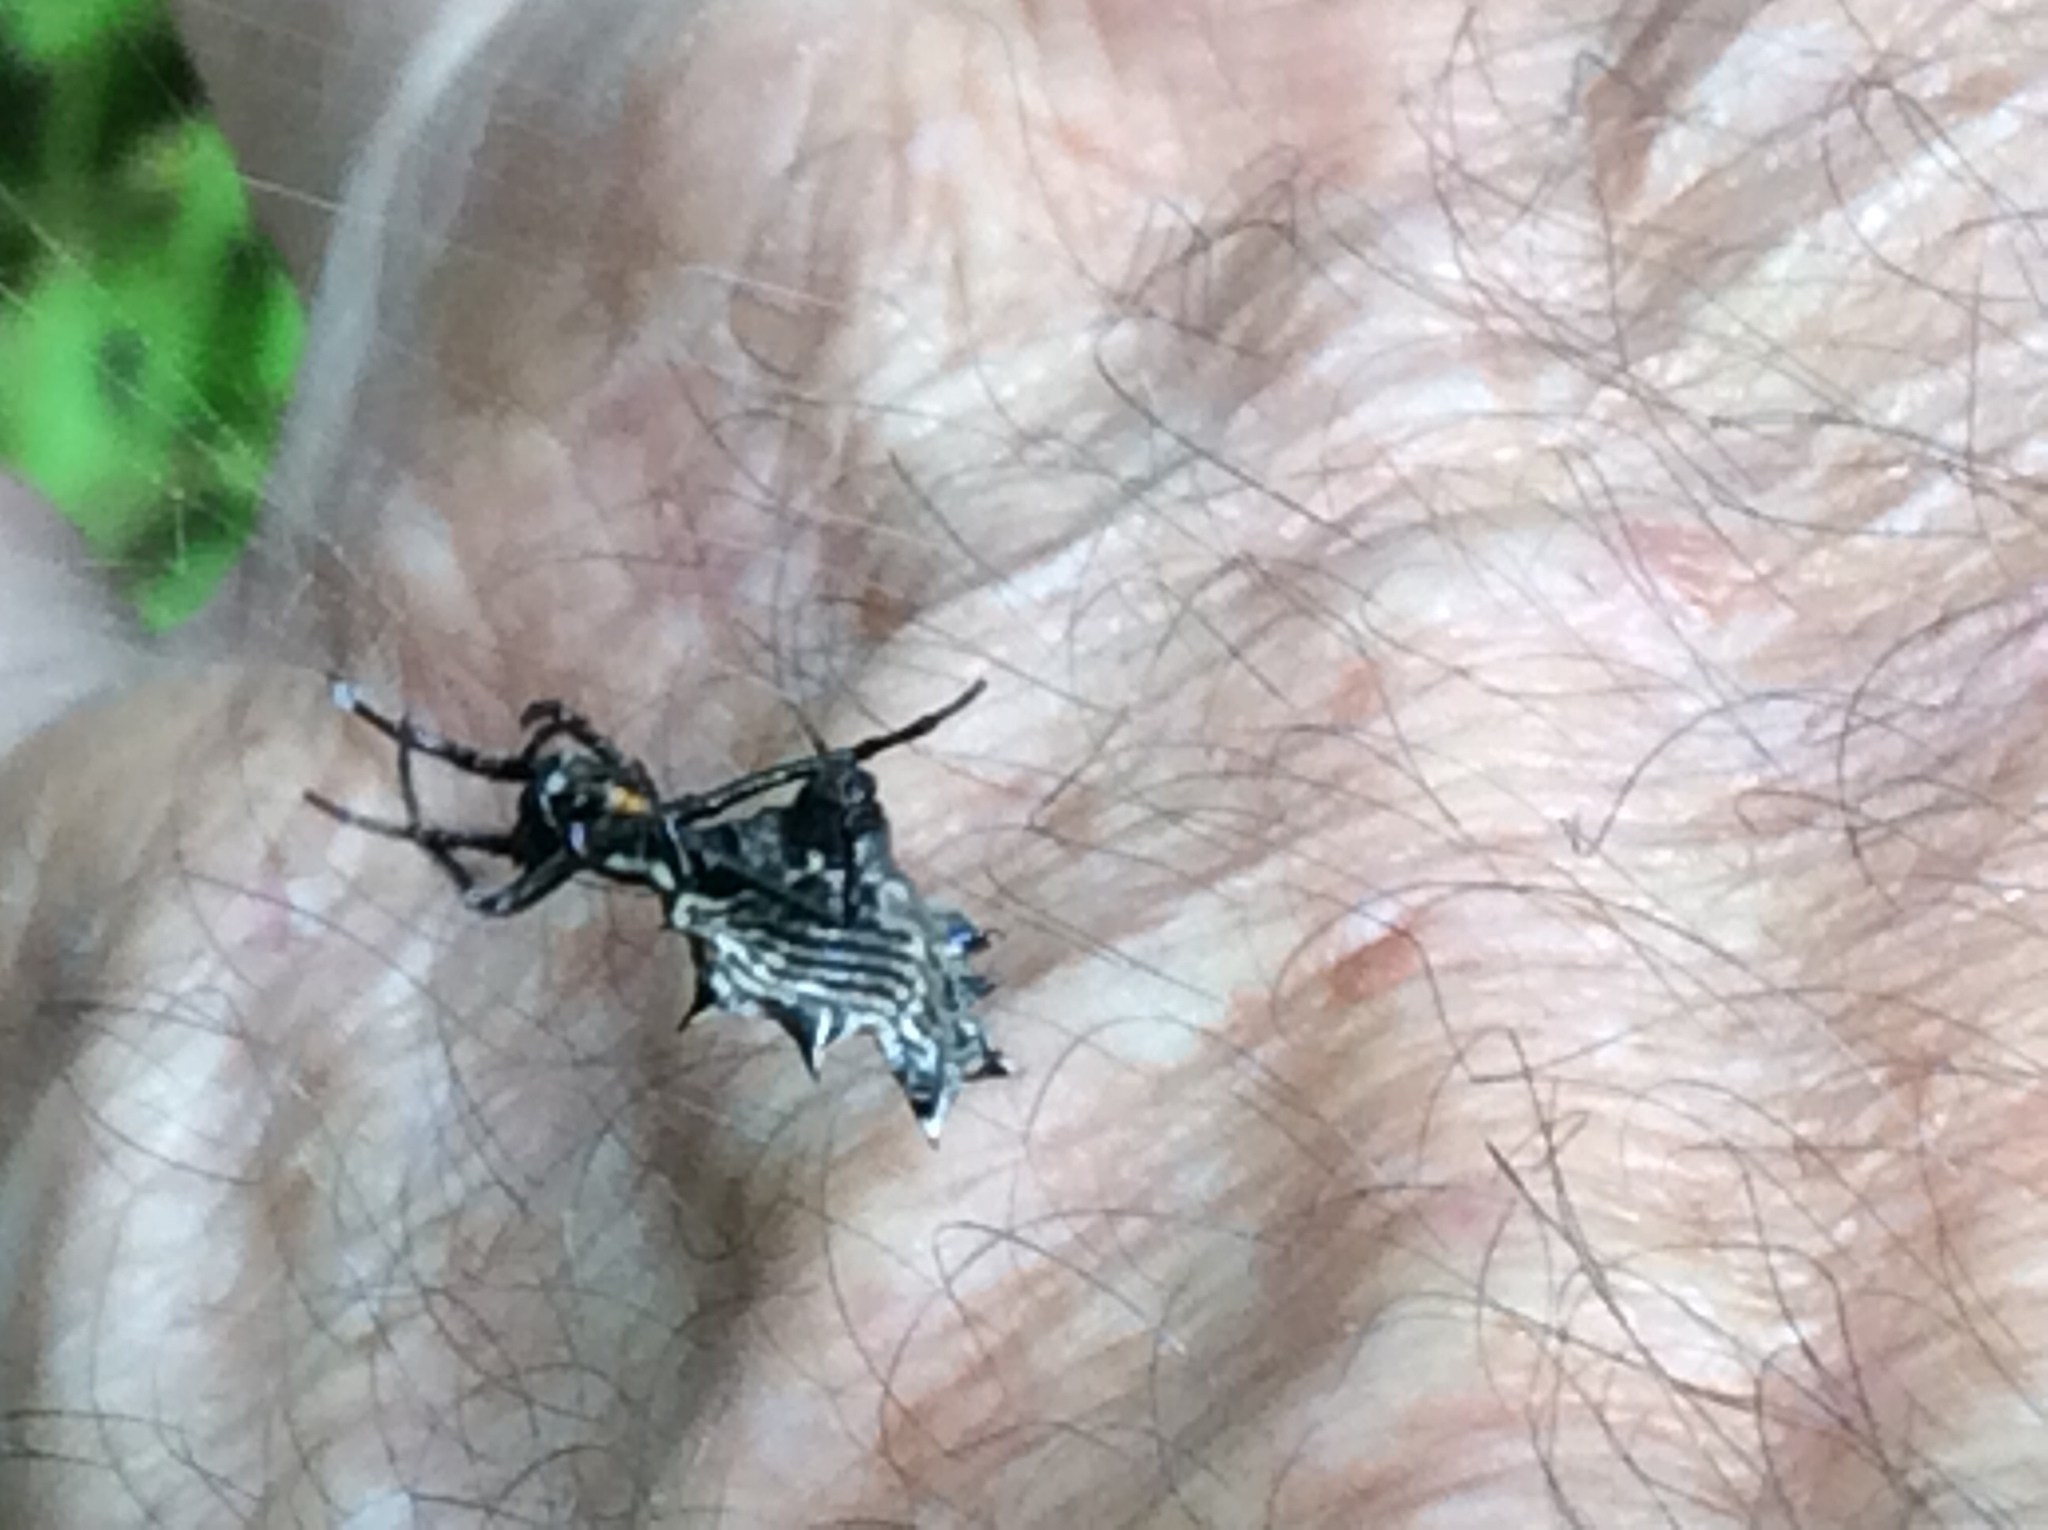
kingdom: Animalia
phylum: Arthropoda
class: Arachnida
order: Araneae
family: Araneidae
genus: Micrathena
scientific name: Micrathena gracilis
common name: Orb weavers
